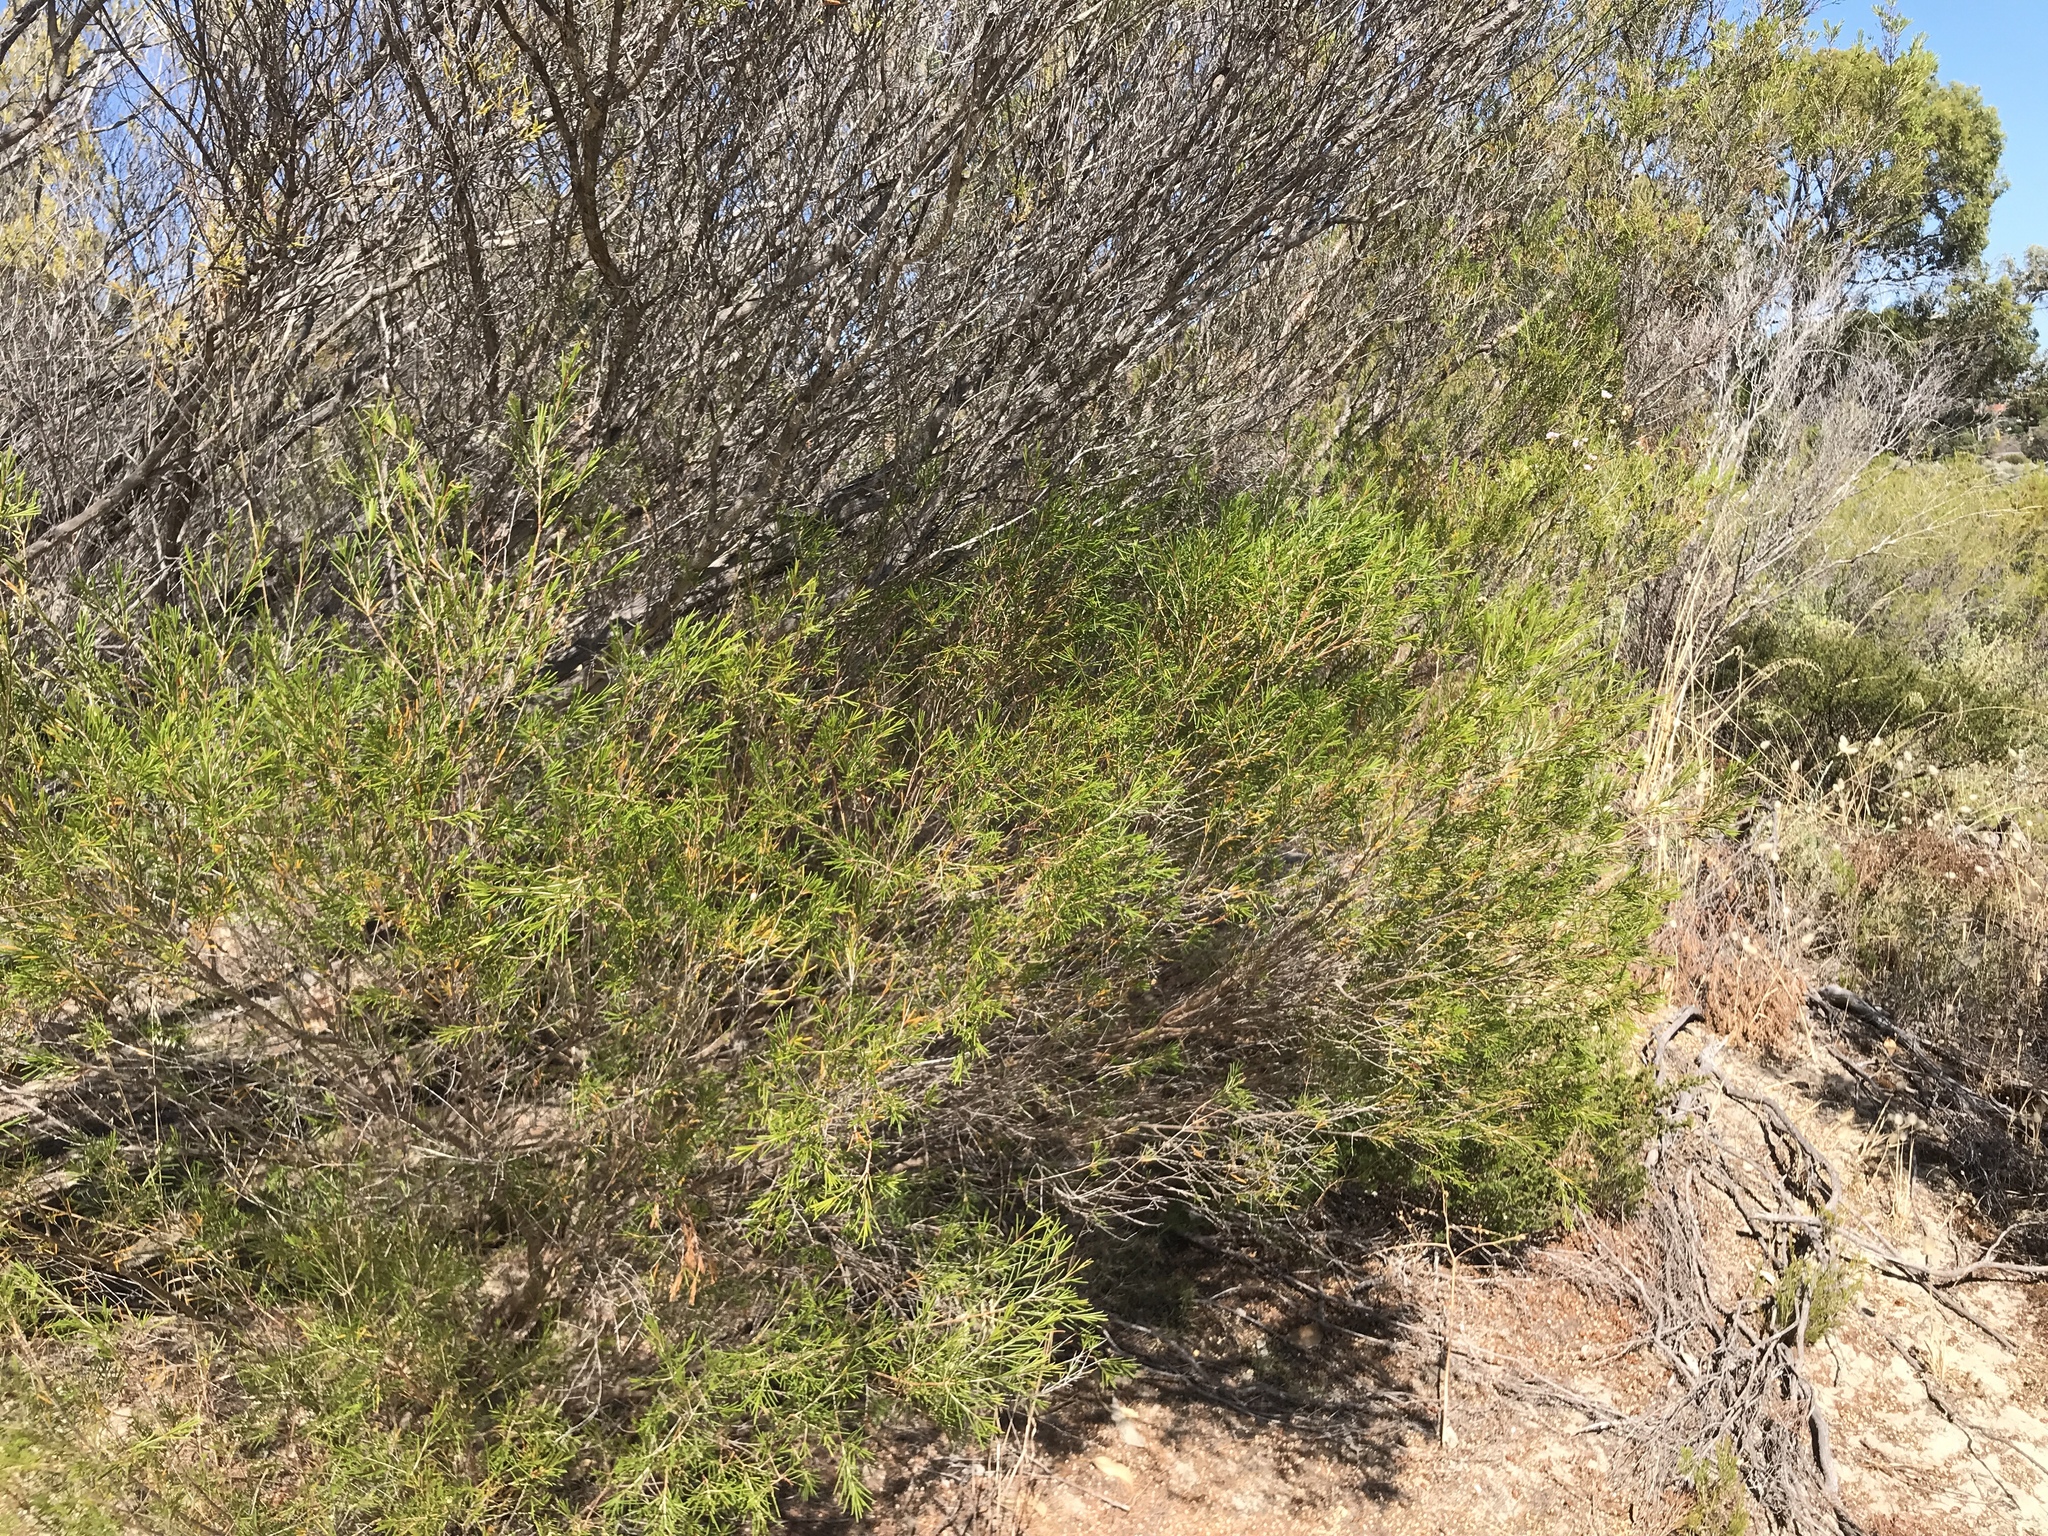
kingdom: Plantae
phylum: Tracheophyta
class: Magnoliopsida
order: Myrtales
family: Myrtaceae
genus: Chamelaucium
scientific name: Chamelaucium uncinatum
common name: Geraldton wax
